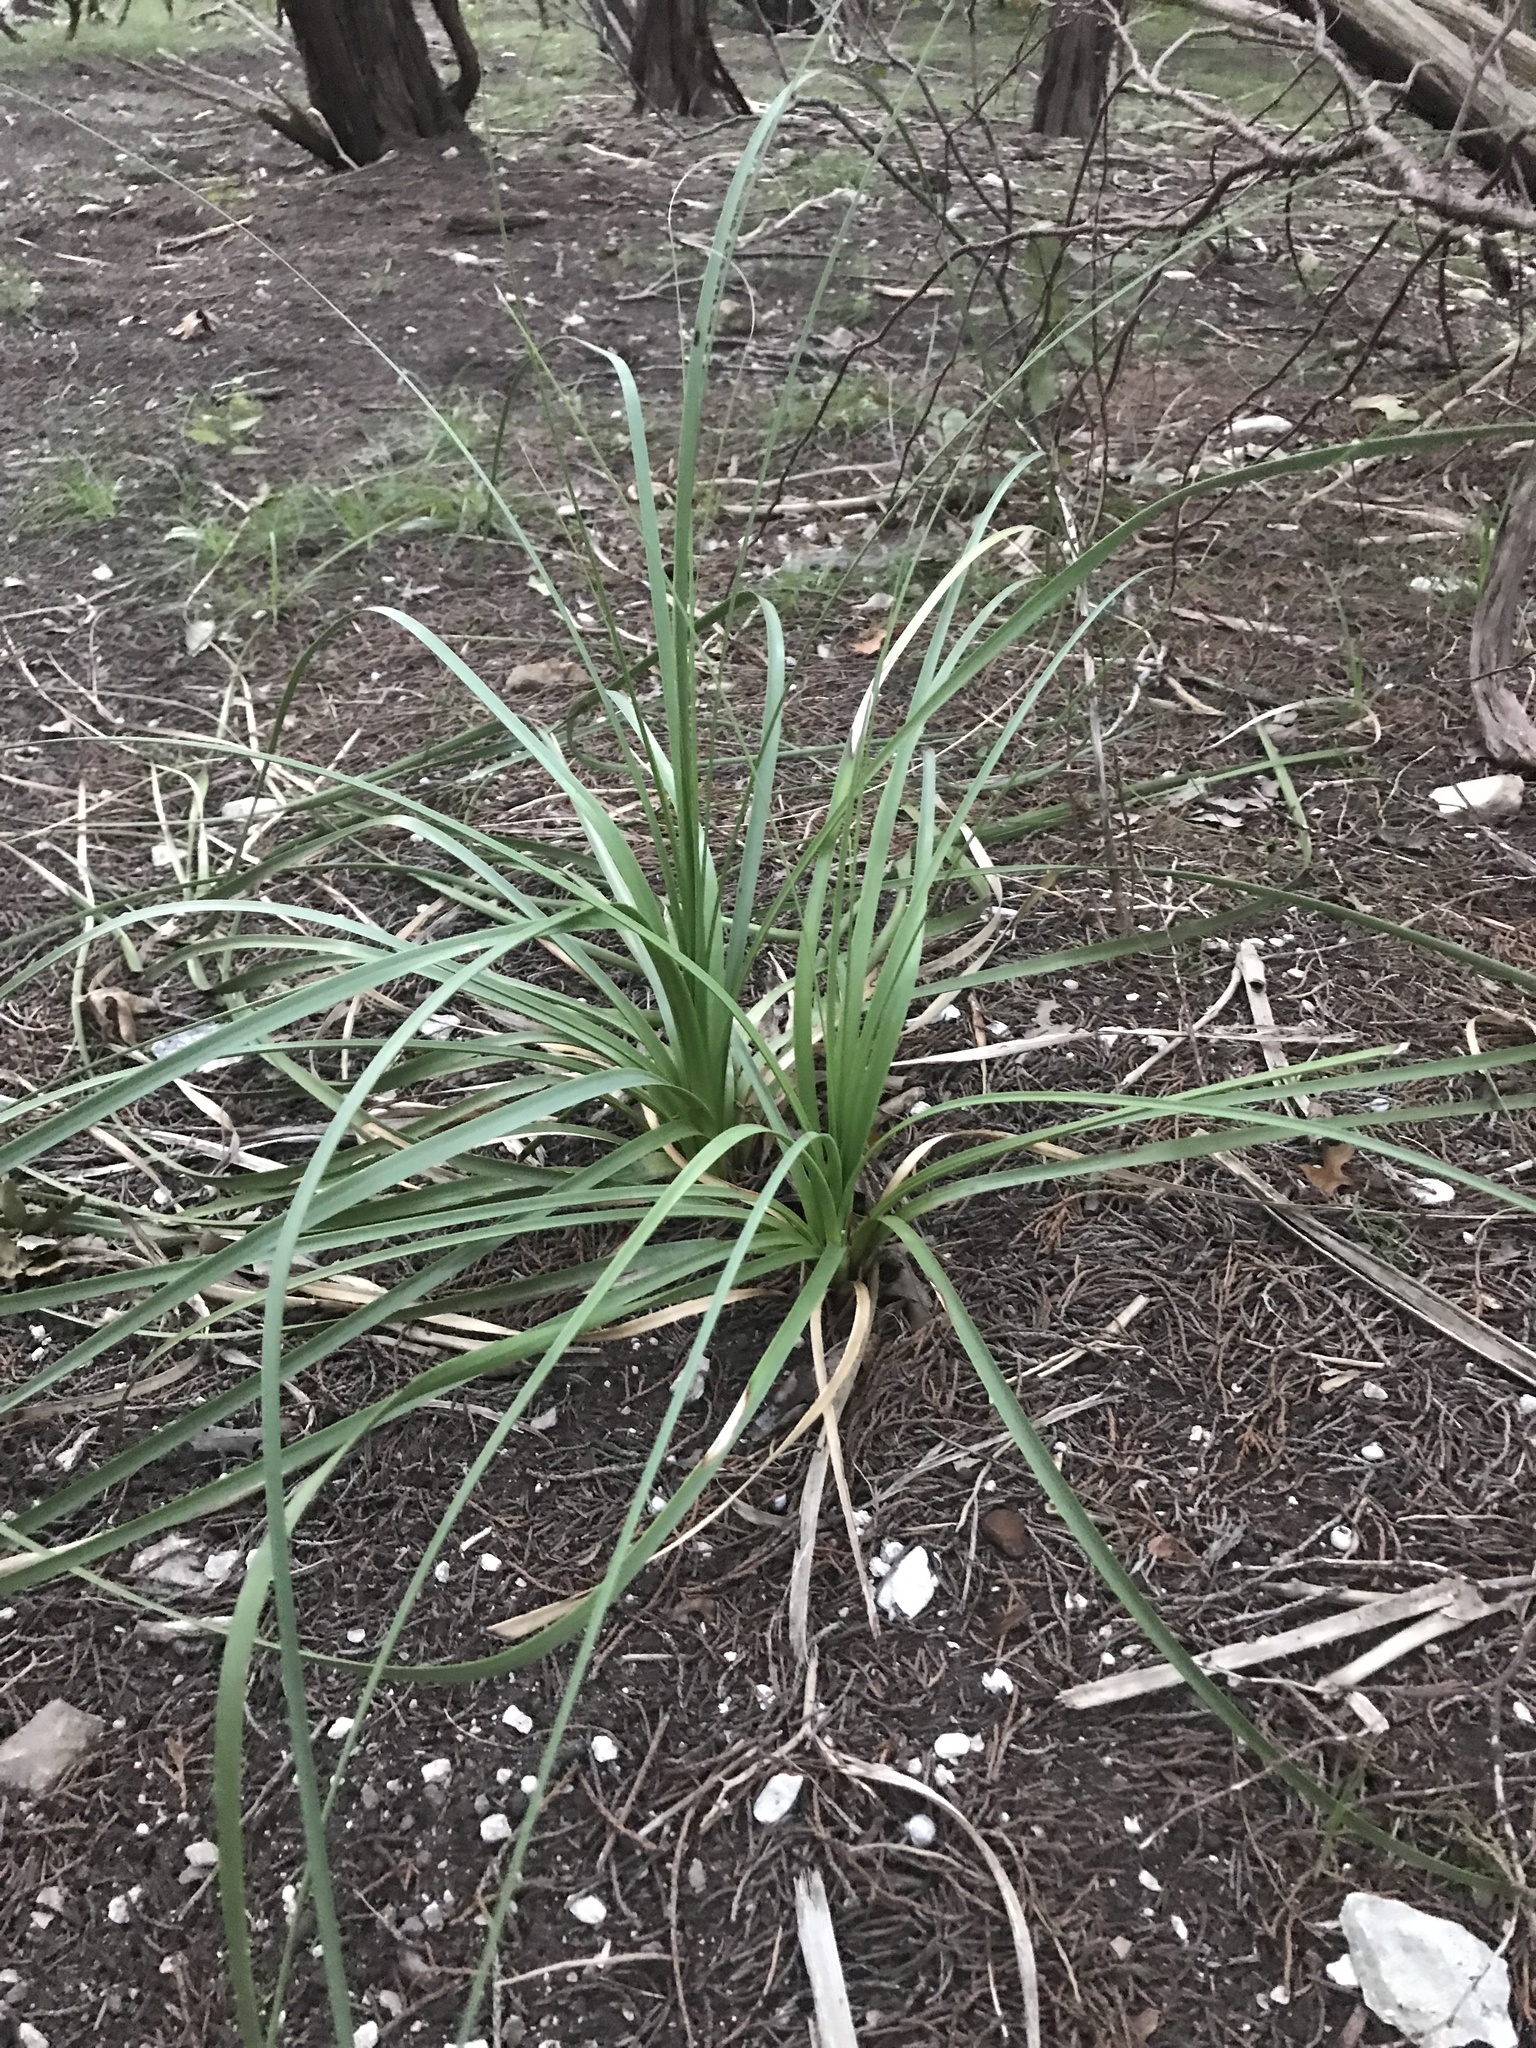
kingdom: Plantae
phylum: Tracheophyta
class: Liliopsida
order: Asparagales
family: Asparagaceae
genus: Nolina
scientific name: Nolina lindheimeriana
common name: Lindheimer's bear-grass
